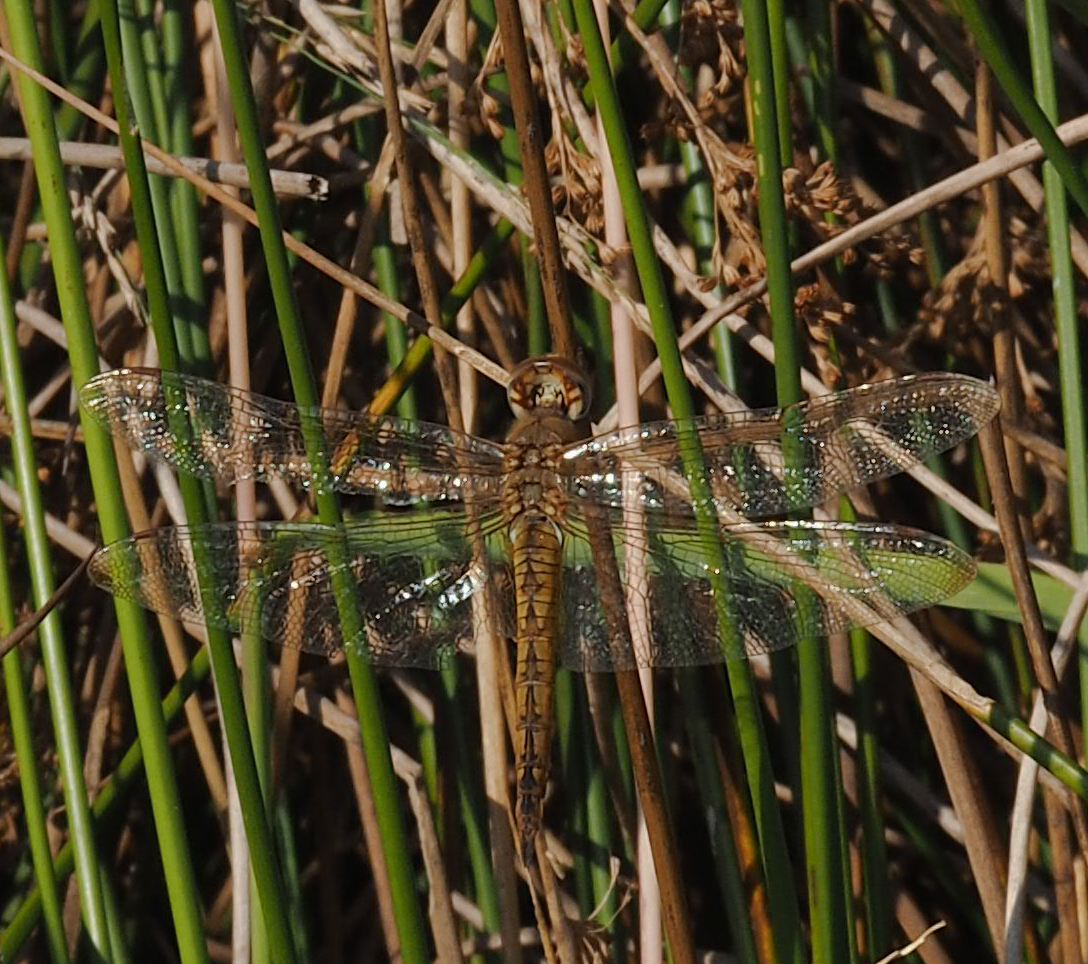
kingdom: Animalia
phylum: Arthropoda
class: Insecta
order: Odonata
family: Libellulidae
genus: Pantala
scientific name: Pantala flavescens
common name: Wandering glider
